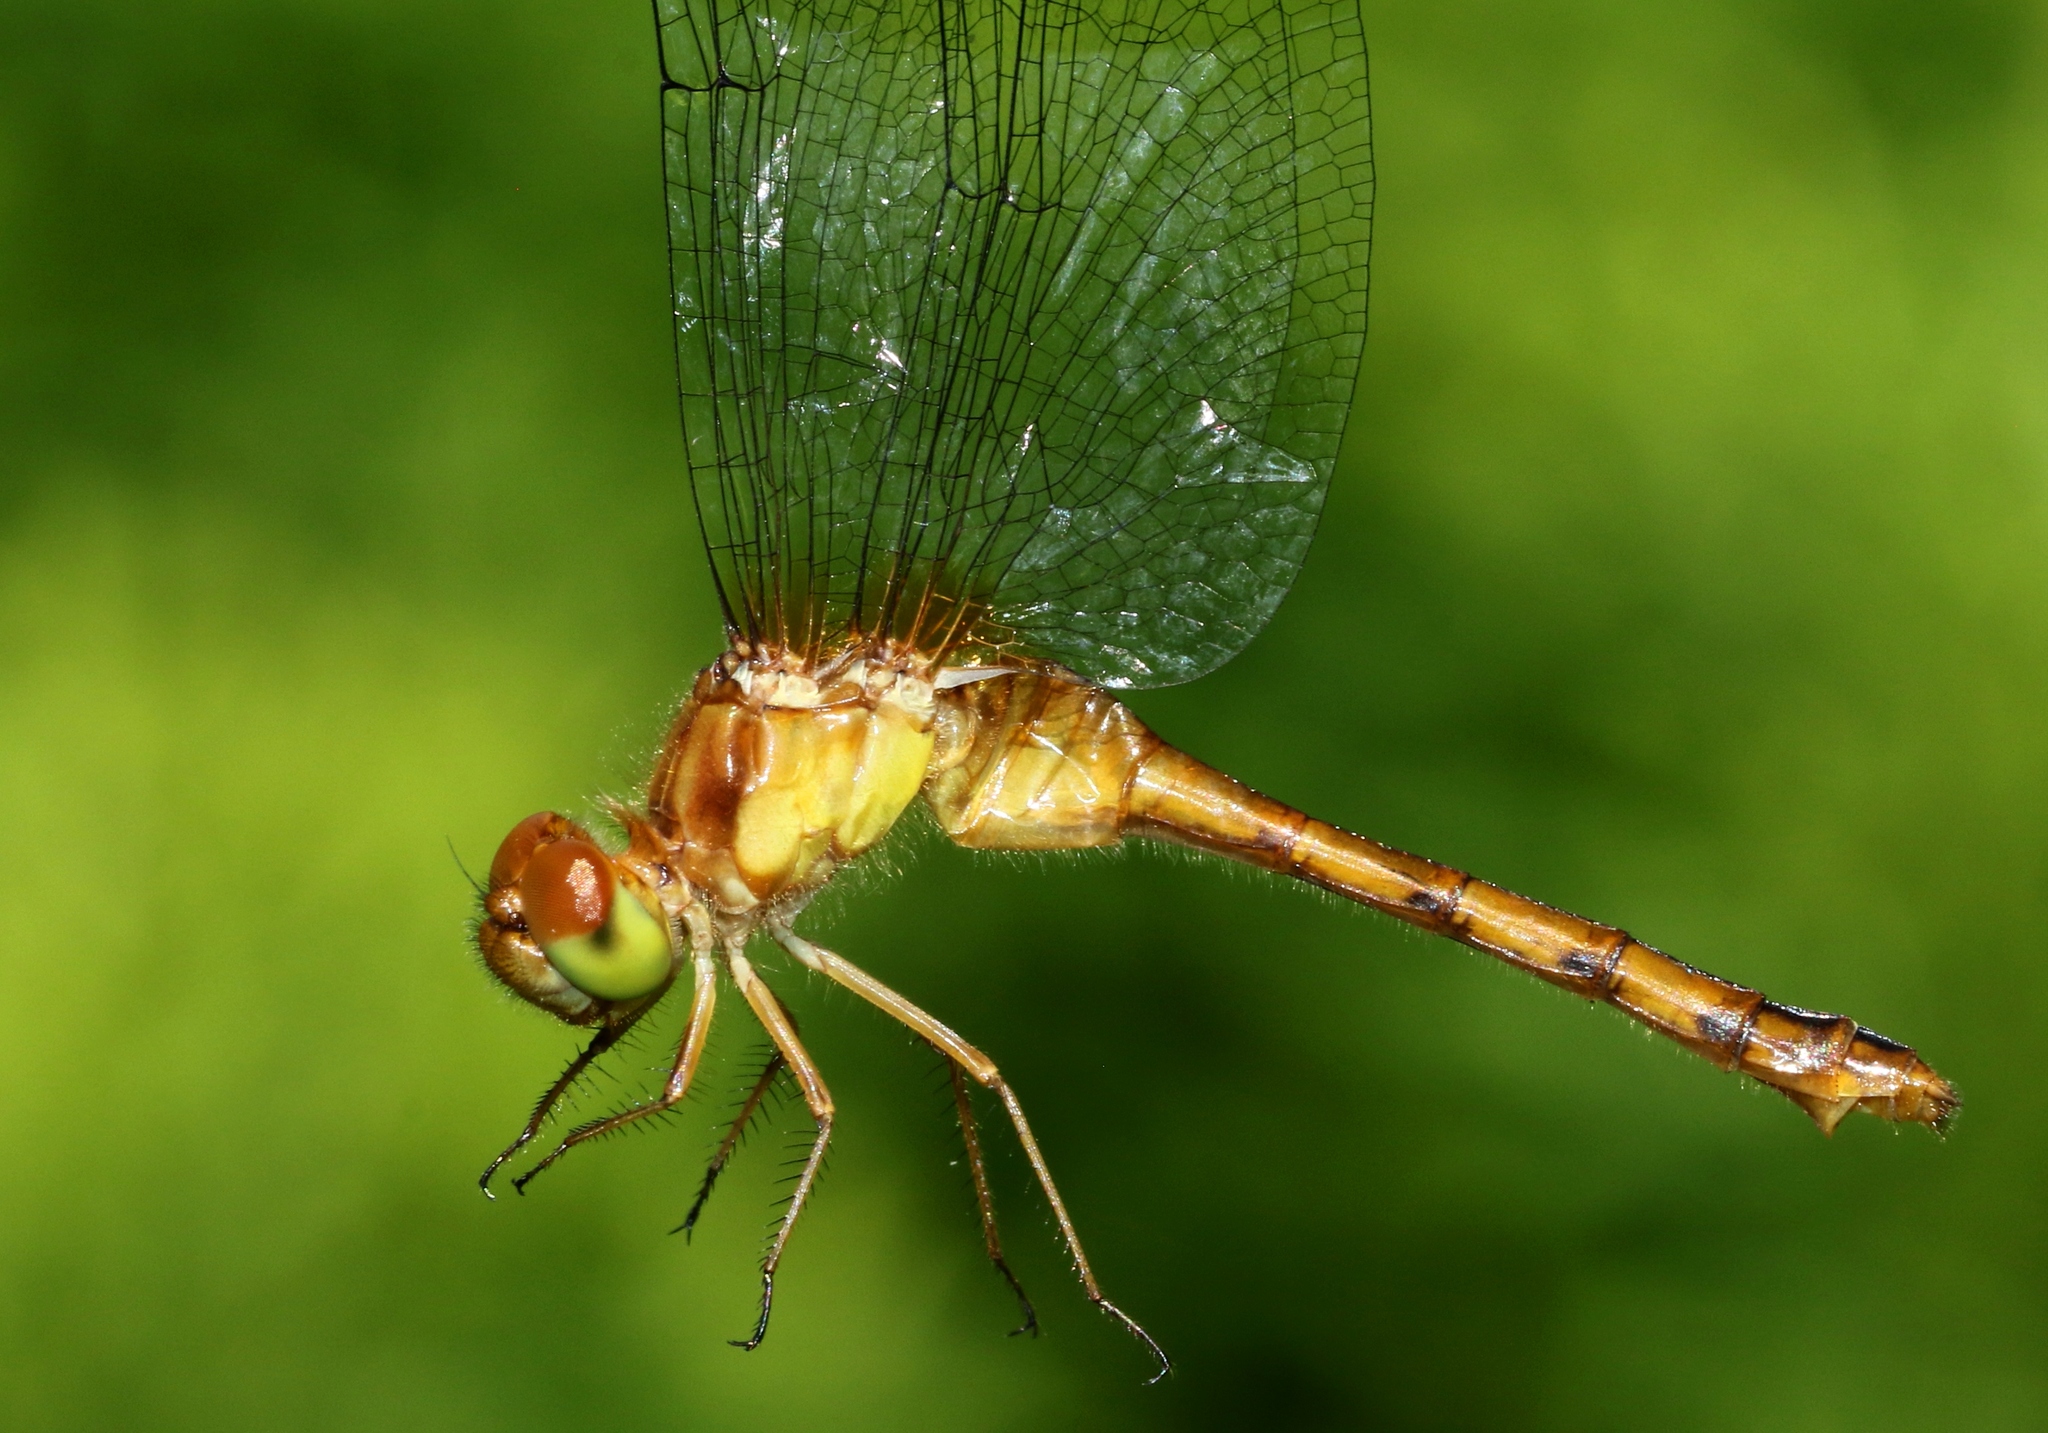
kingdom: Animalia
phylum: Arthropoda
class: Insecta
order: Odonata
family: Libellulidae
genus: Sympetrum
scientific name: Sympetrum vicinum
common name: Autumn meadowhawk
